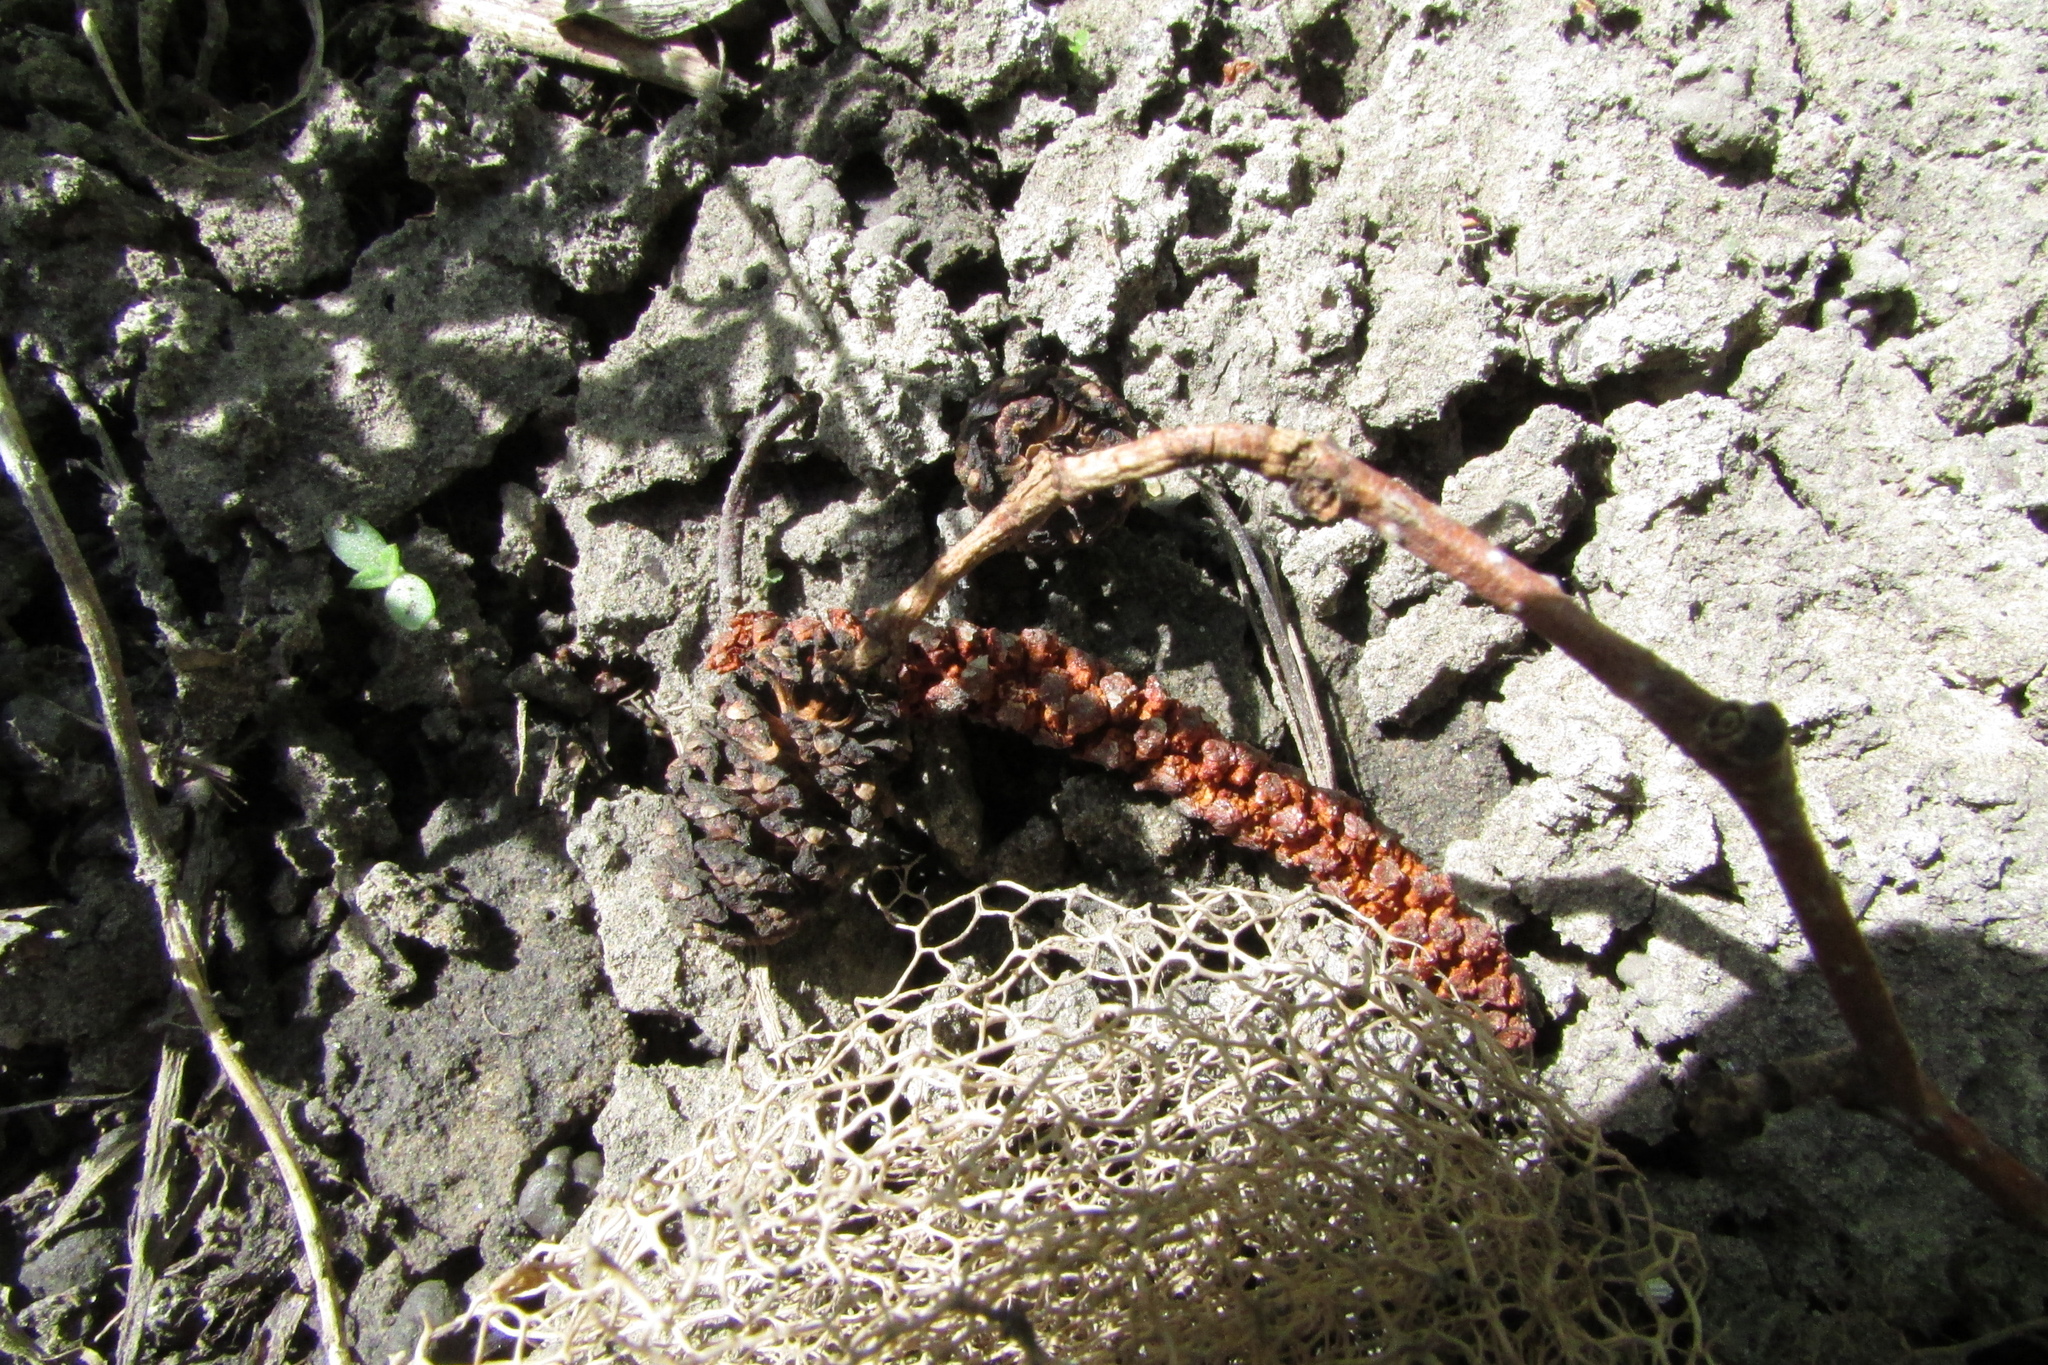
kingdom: Plantae
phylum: Tracheophyta
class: Magnoliopsida
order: Fagales
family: Betulaceae
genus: Alnus
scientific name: Alnus glutinosa
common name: Black alder
